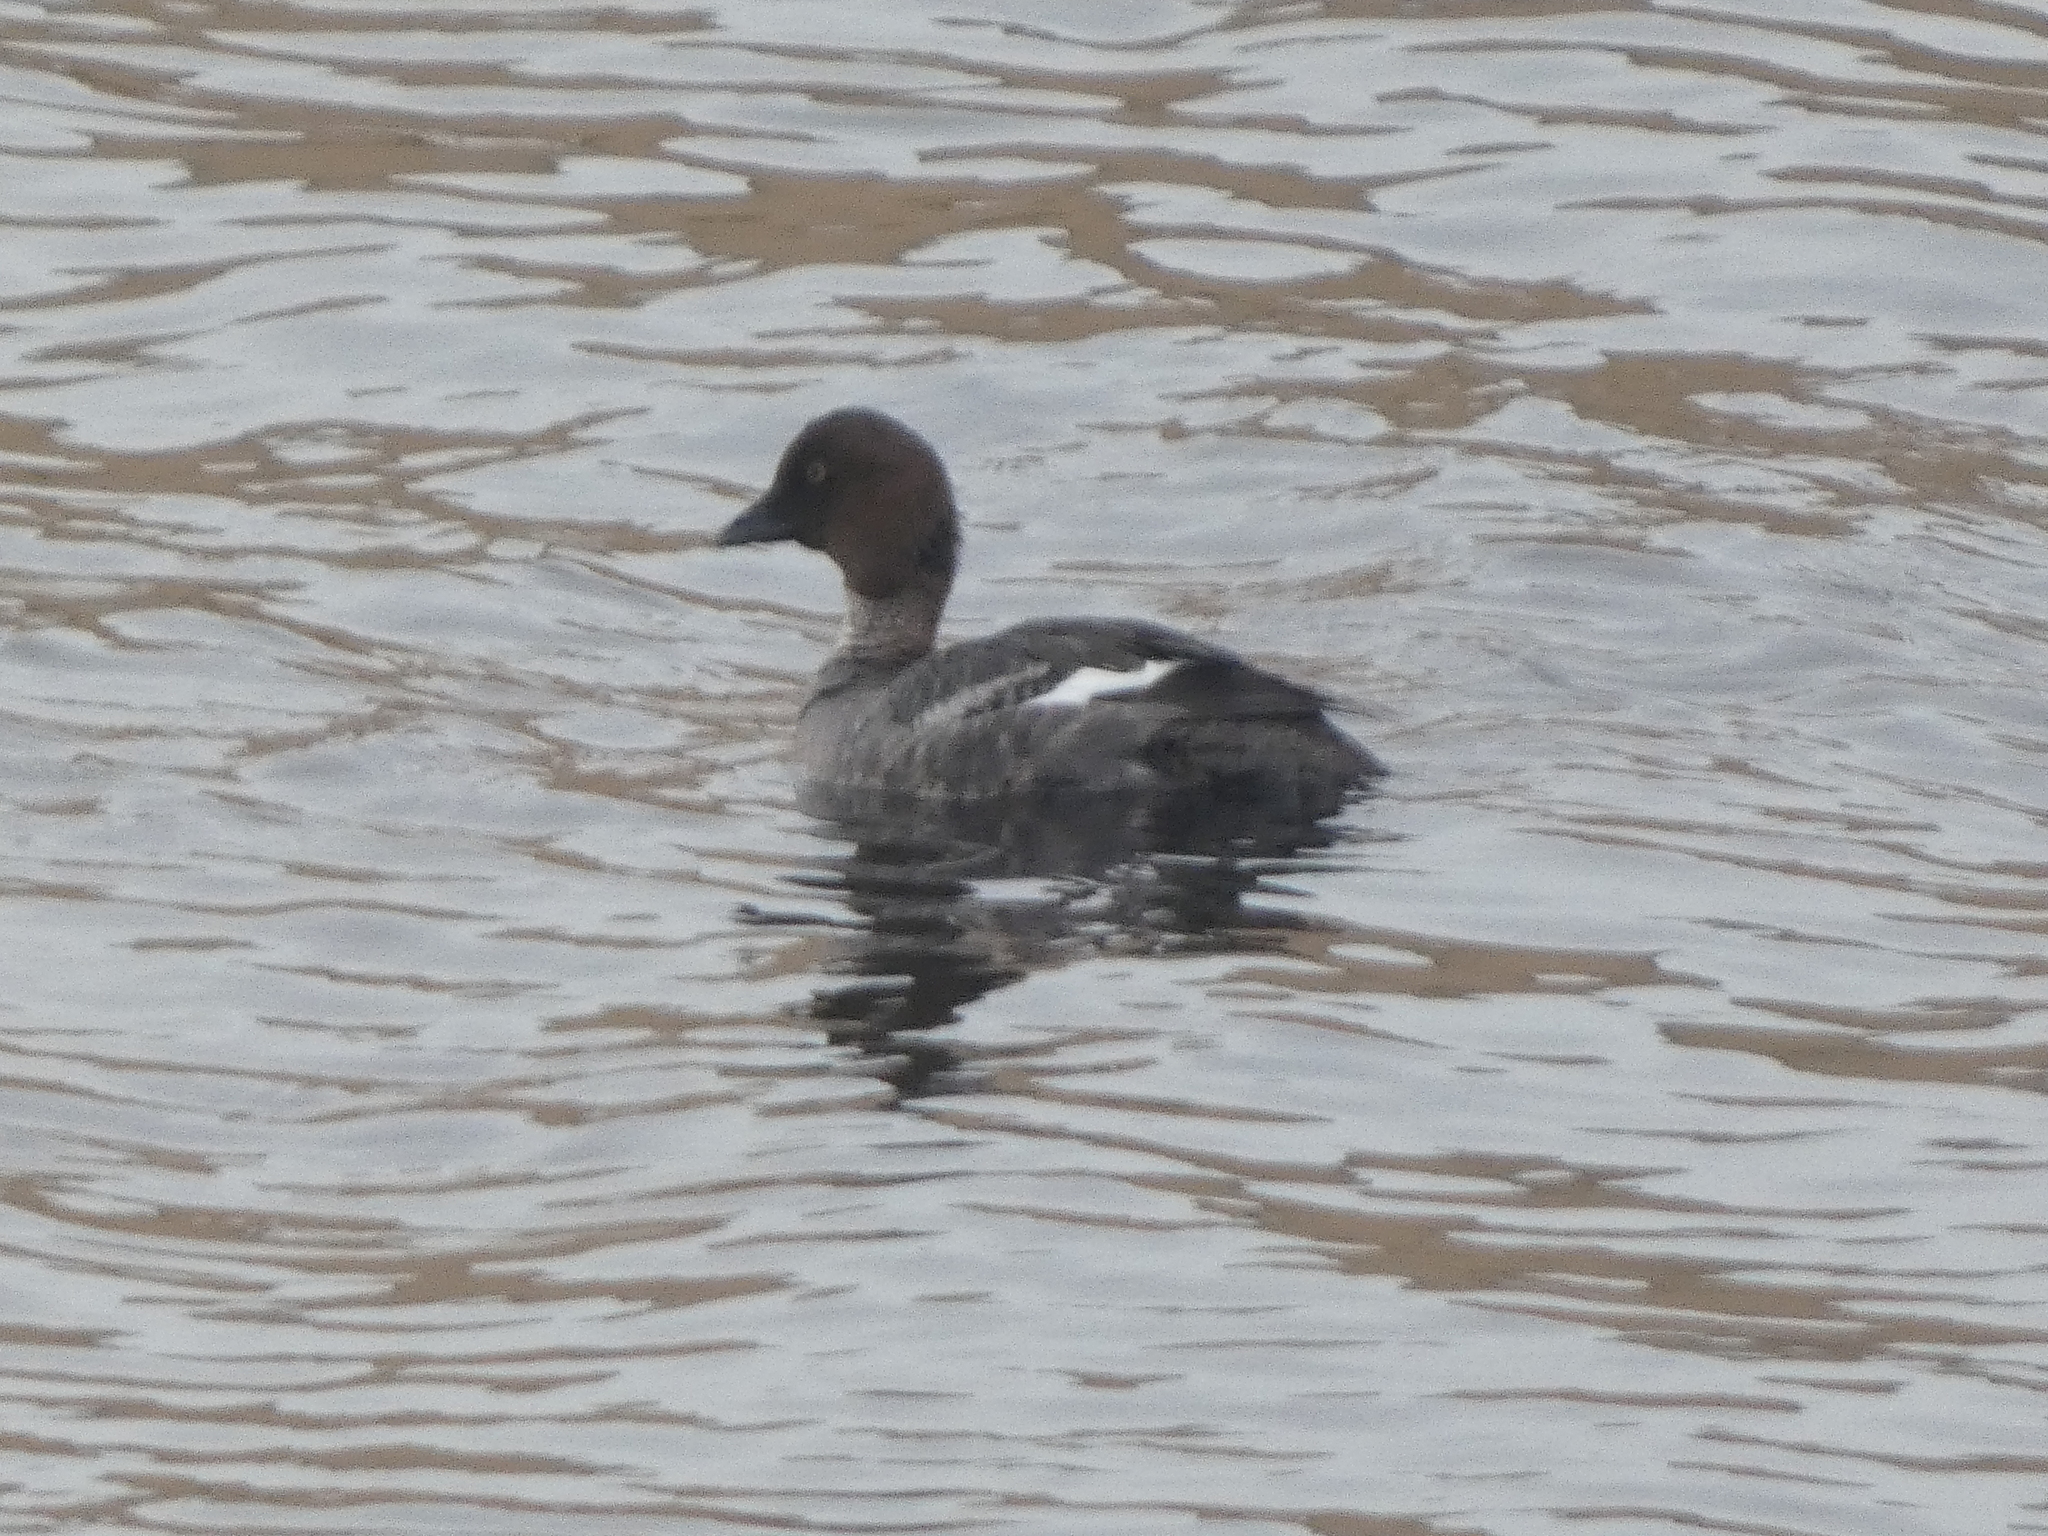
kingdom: Animalia
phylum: Chordata
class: Aves
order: Anseriformes
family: Anatidae
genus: Bucephala
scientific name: Bucephala clangula
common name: Common goldeneye
